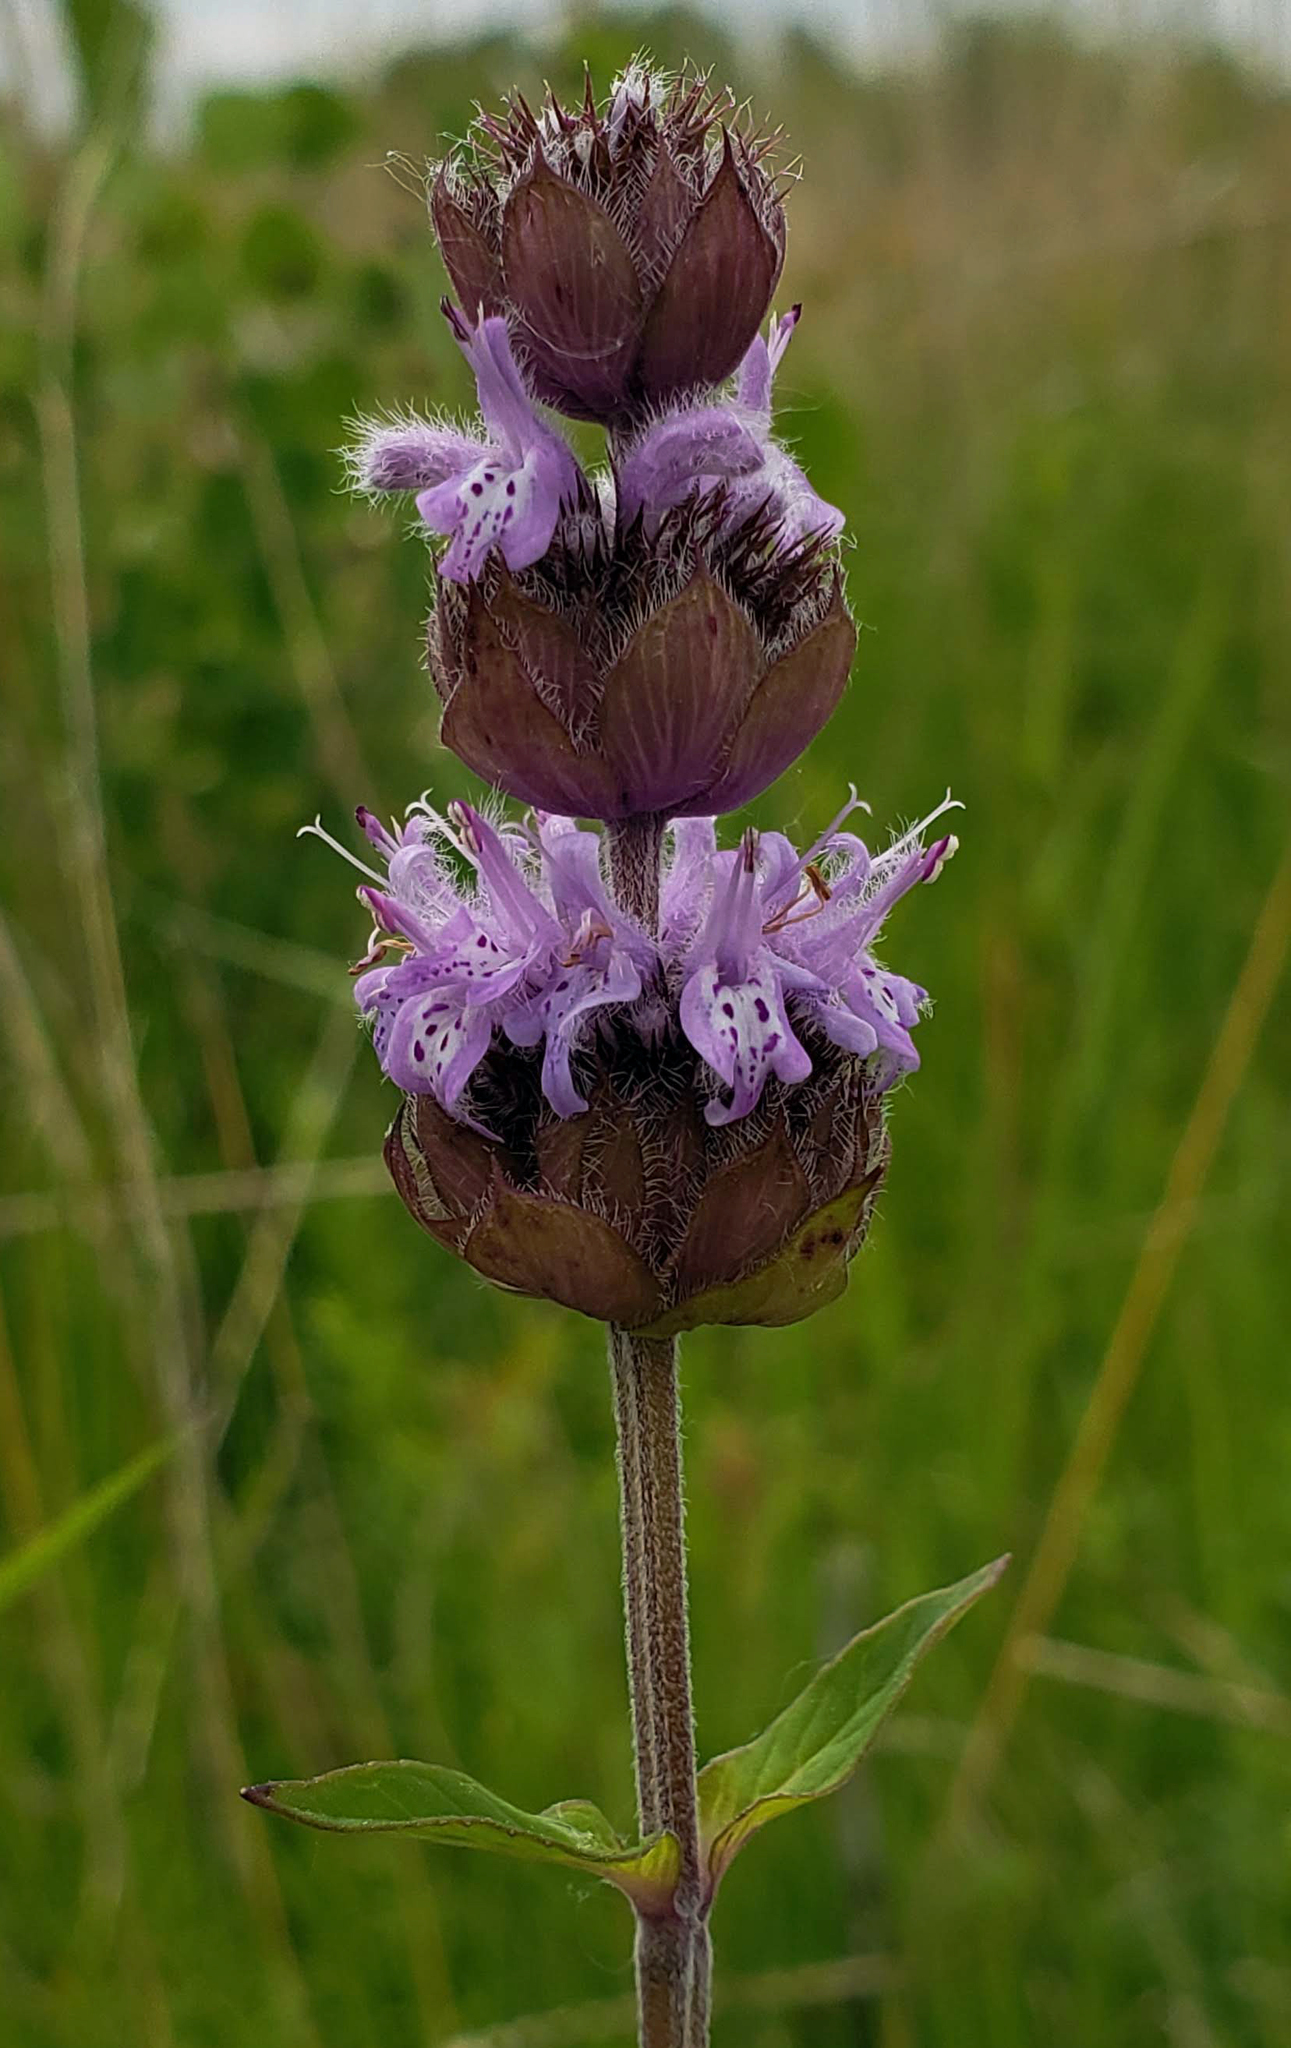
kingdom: Plantae
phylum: Tracheophyta
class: Magnoliopsida
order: Lamiales
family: Lamiaceae
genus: Blephilia
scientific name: Blephilia ciliata
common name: Downy blephilia
